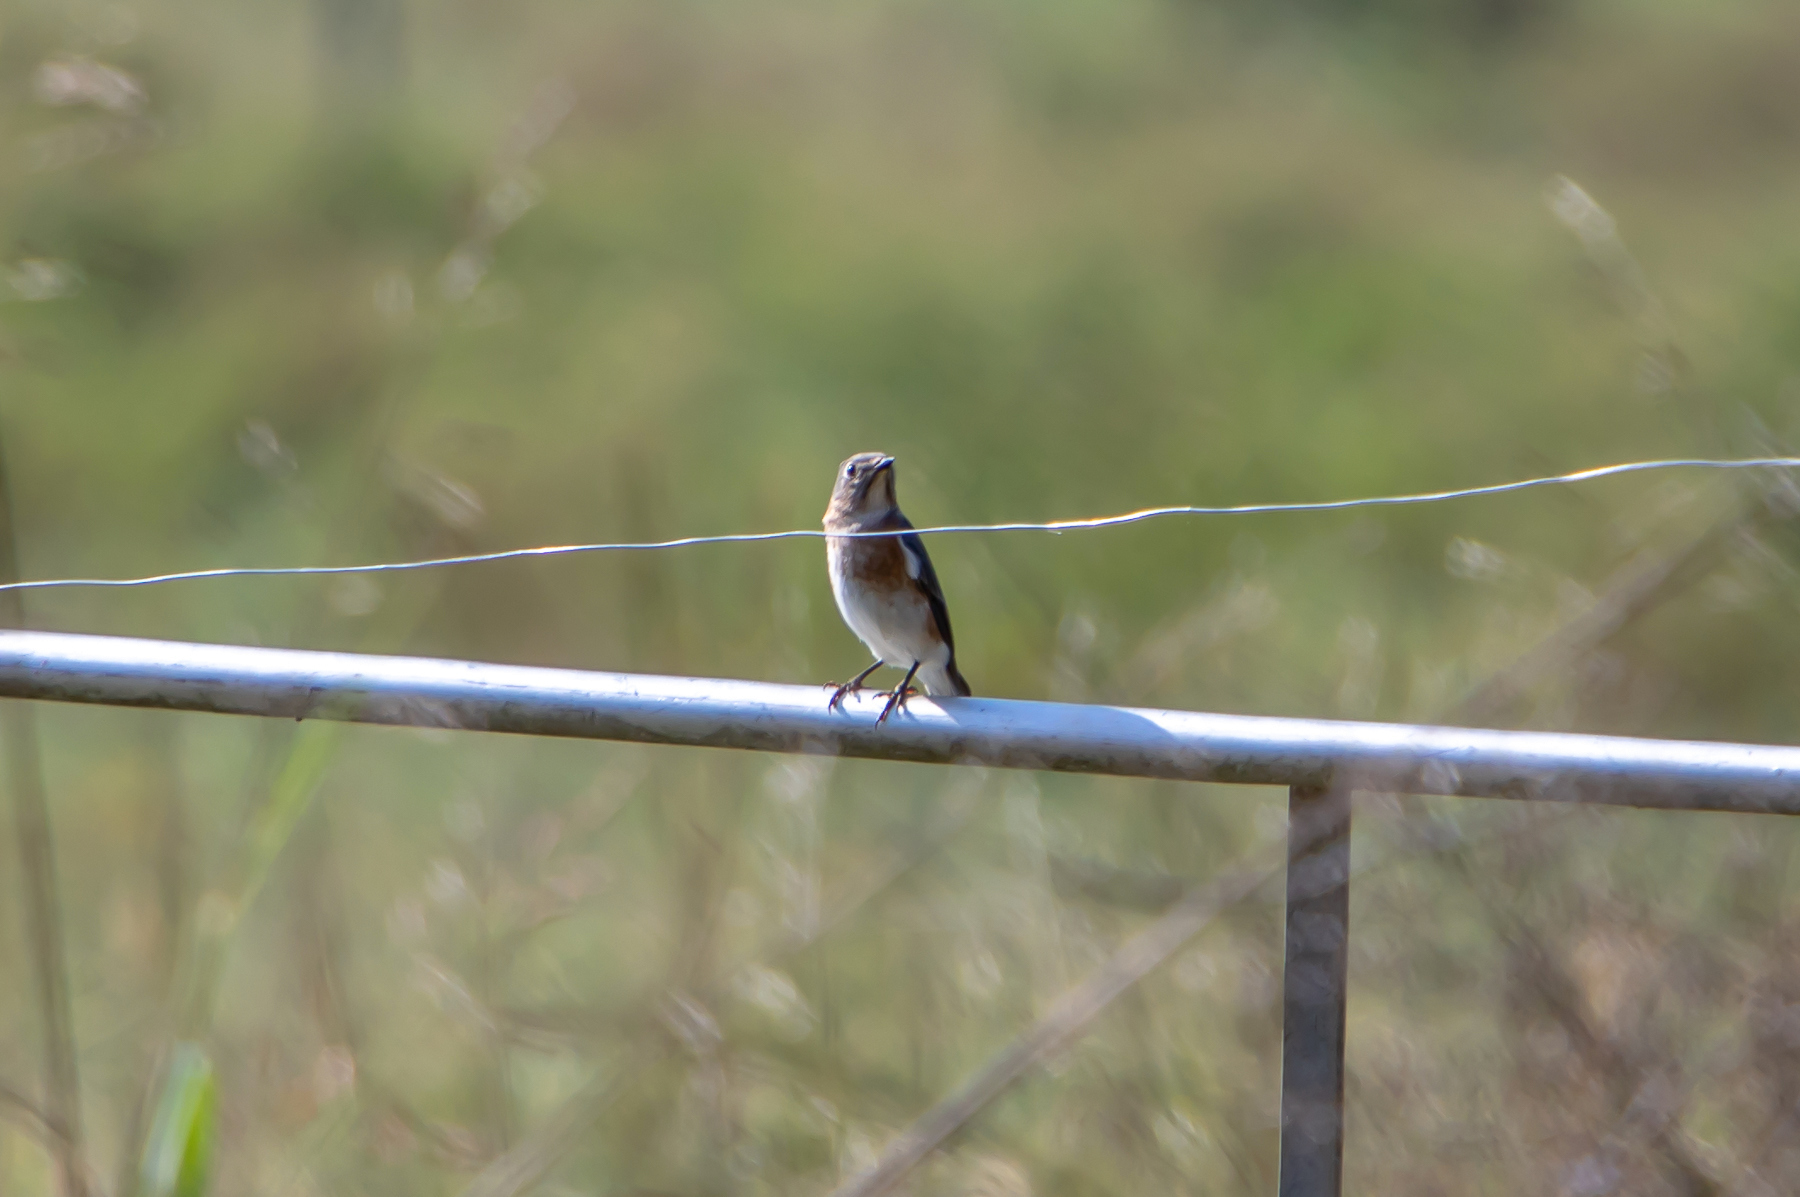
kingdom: Animalia
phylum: Chordata
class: Aves
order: Passeriformes
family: Turdidae
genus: Sialia
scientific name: Sialia sialis
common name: Eastern bluebird
